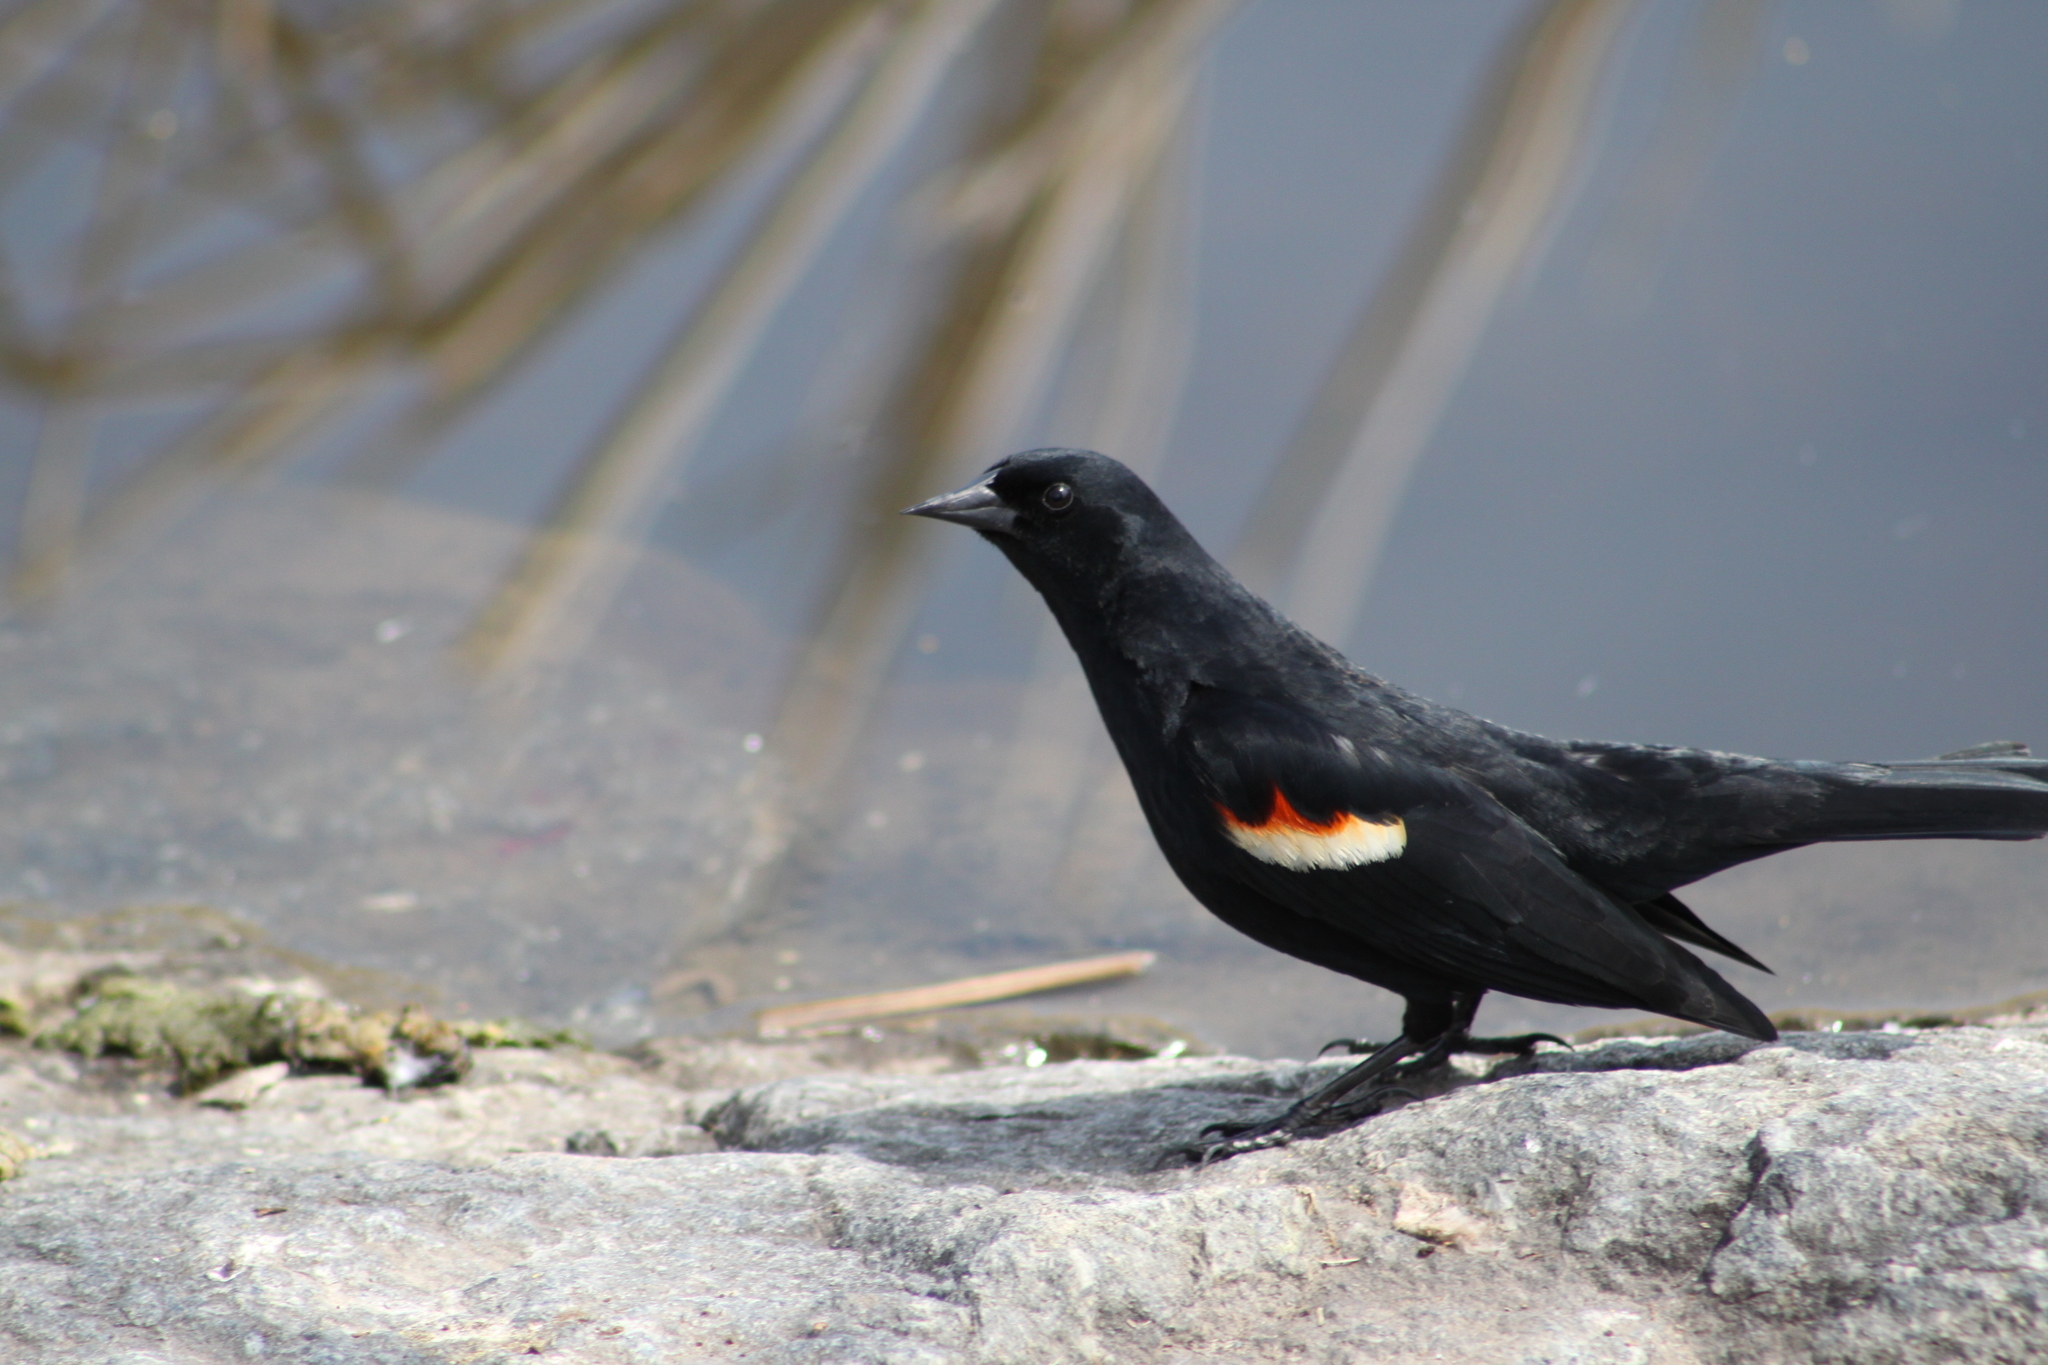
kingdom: Animalia
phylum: Chordata
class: Aves
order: Passeriformes
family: Icteridae
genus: Agelaius
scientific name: Agelaius phoeniceus
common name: Red-winged blackbird
